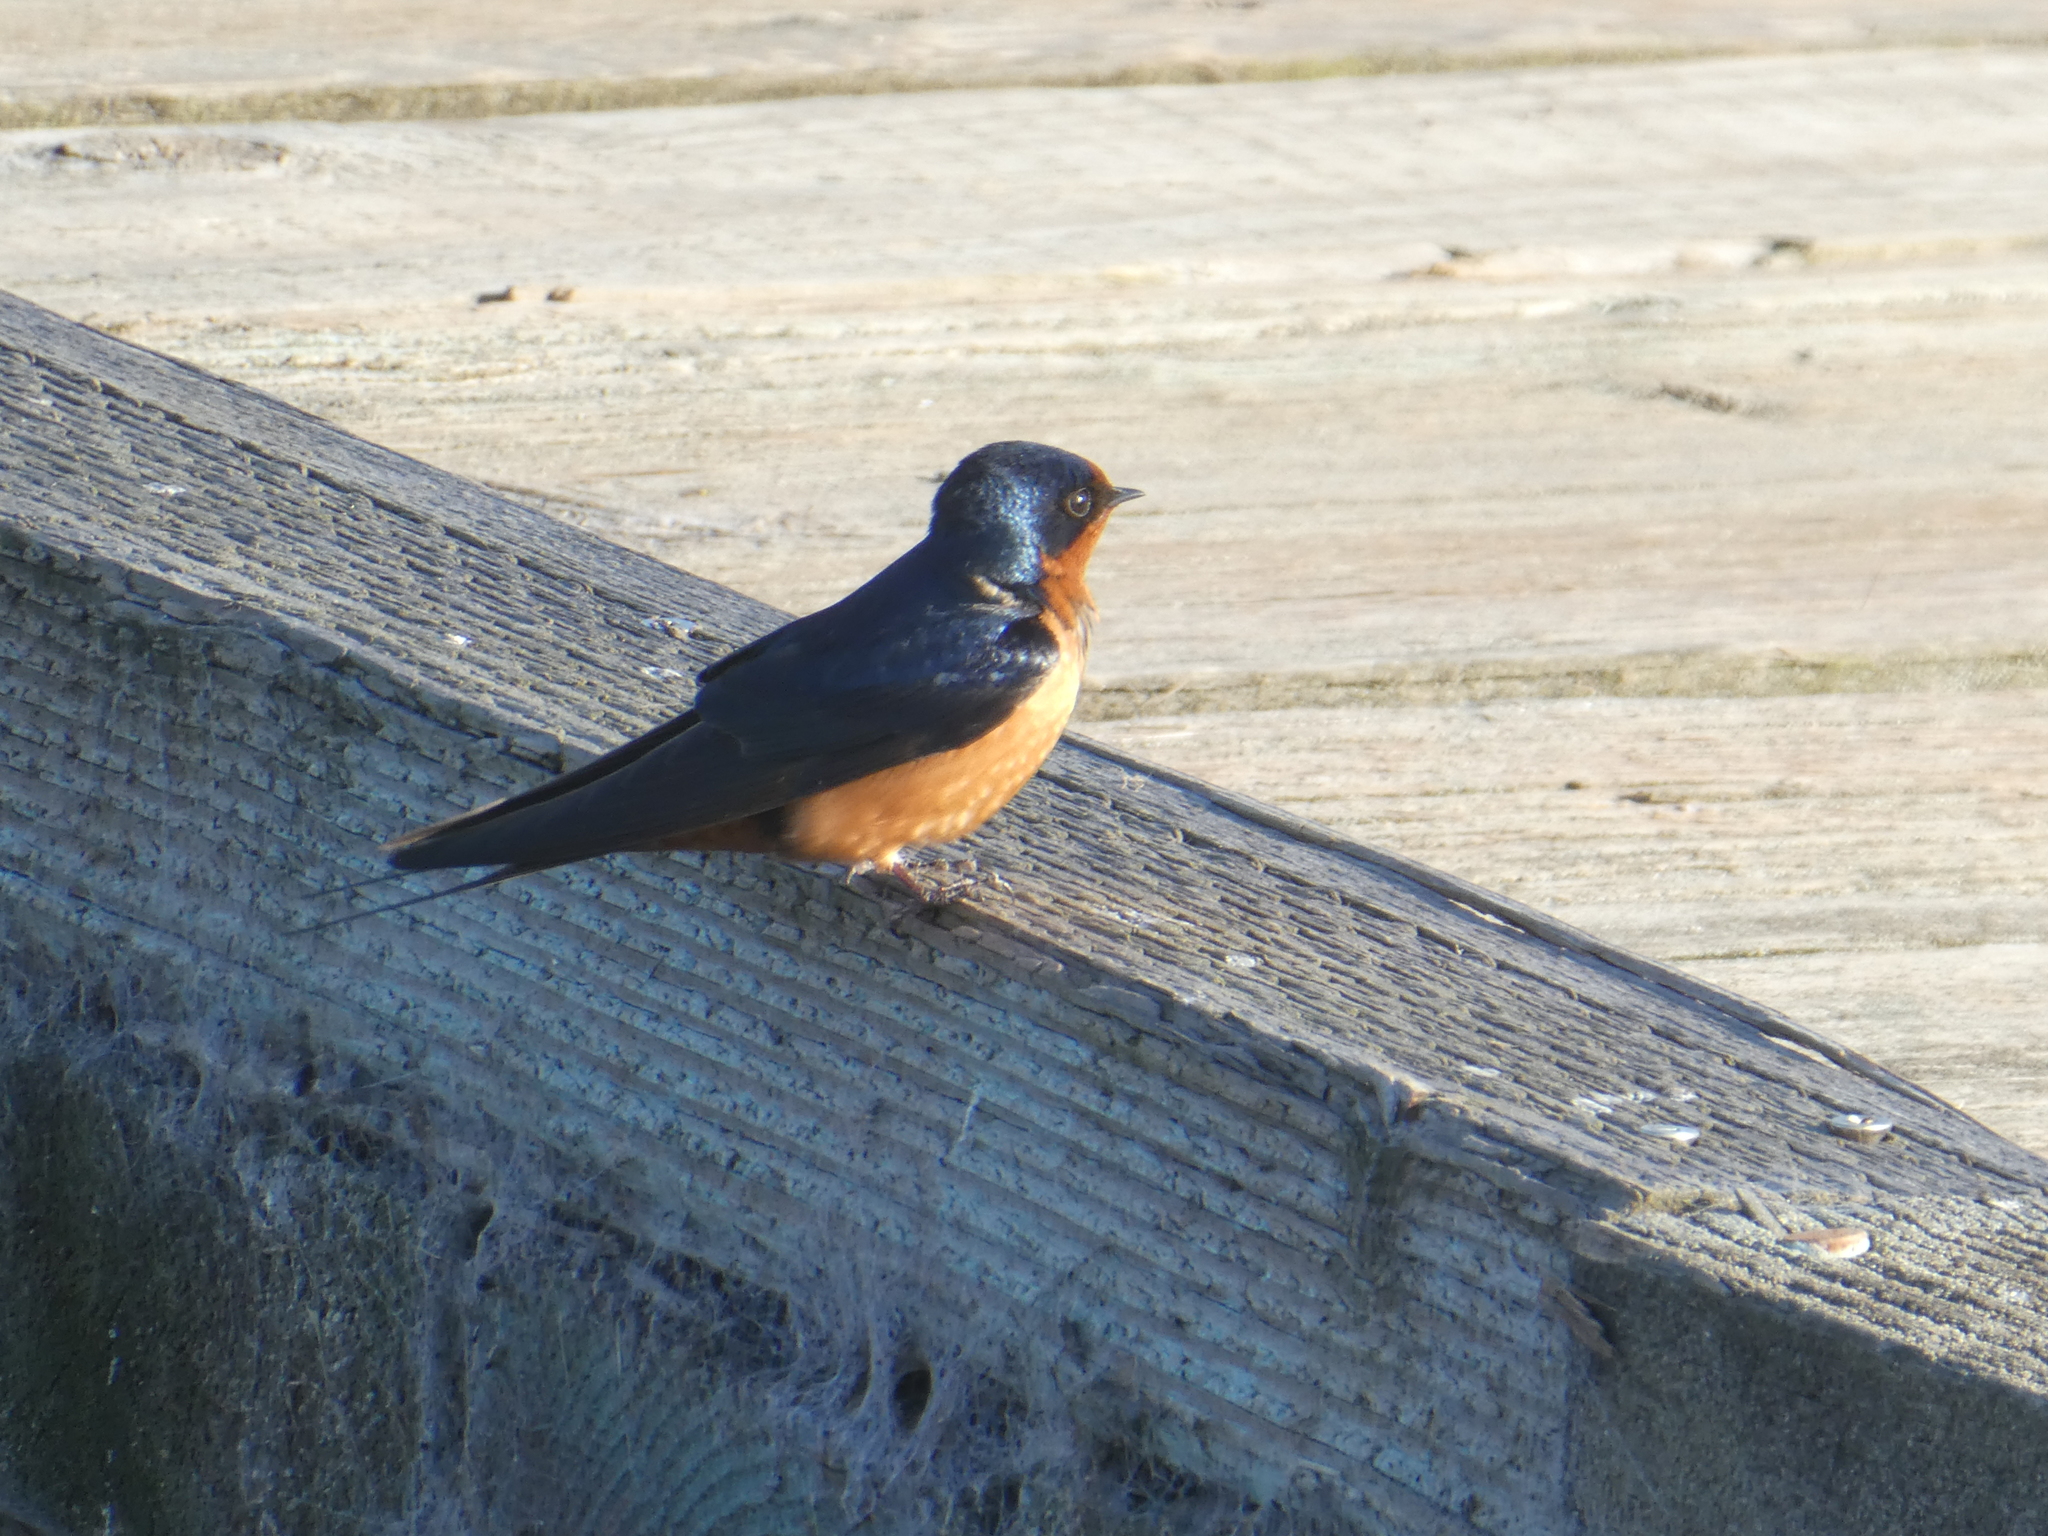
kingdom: Animalia
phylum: Chordata
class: Aves
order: Passeriformes
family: Hirundinidae
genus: Hirundo
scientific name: Hirundo rustica
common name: Barn swallow
